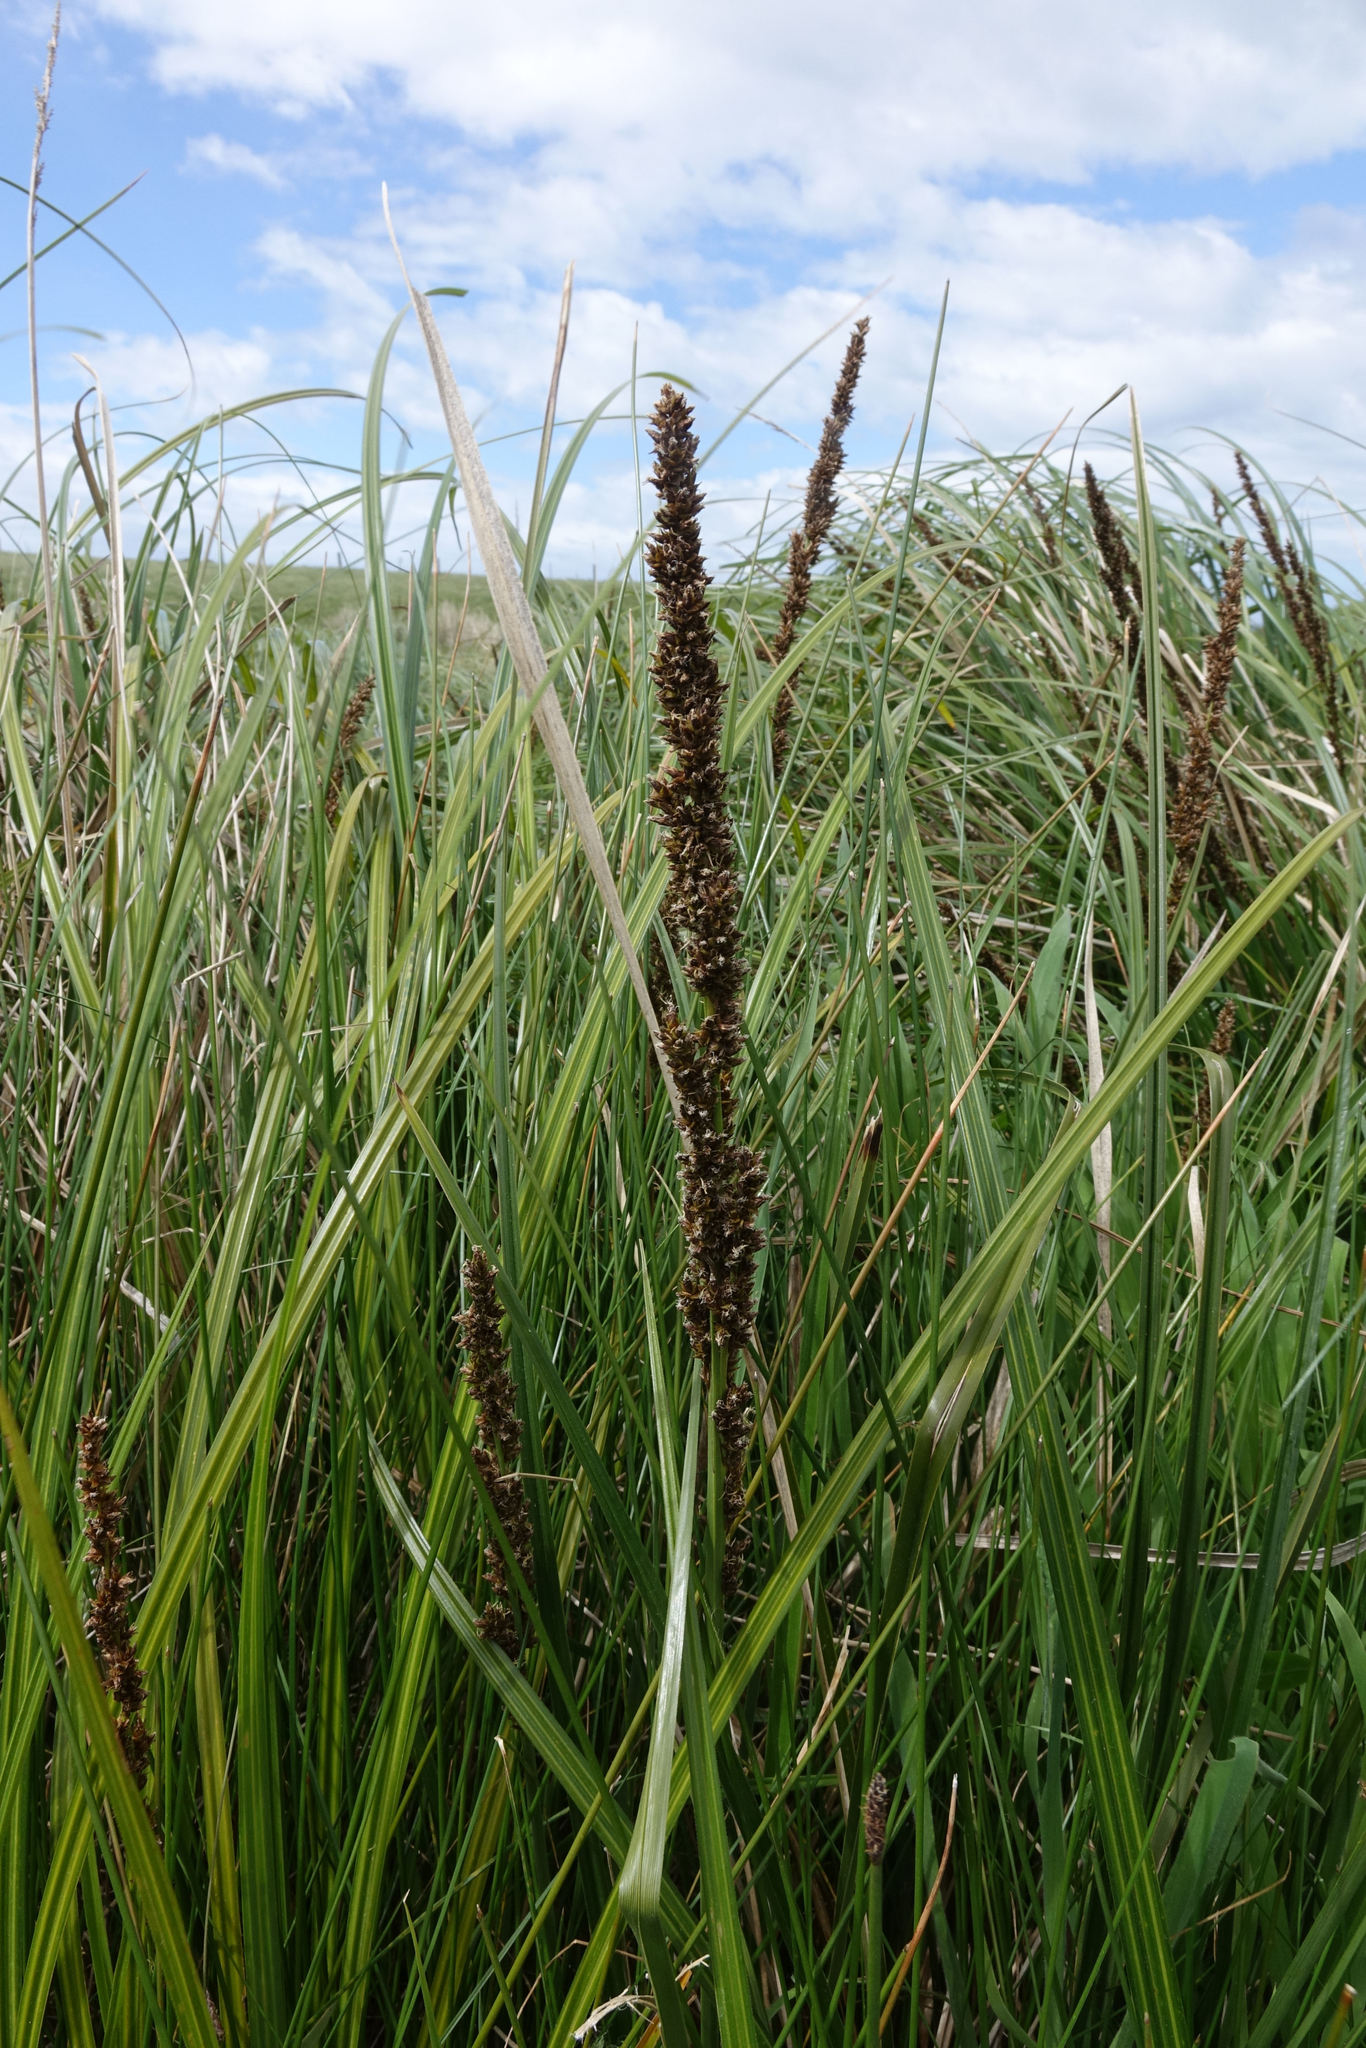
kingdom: Plantae
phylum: Tracheophyta
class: Liliopsida
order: Poales
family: Cyperaceae
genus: Carex
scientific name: Carex appressa
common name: Tussock sedge
